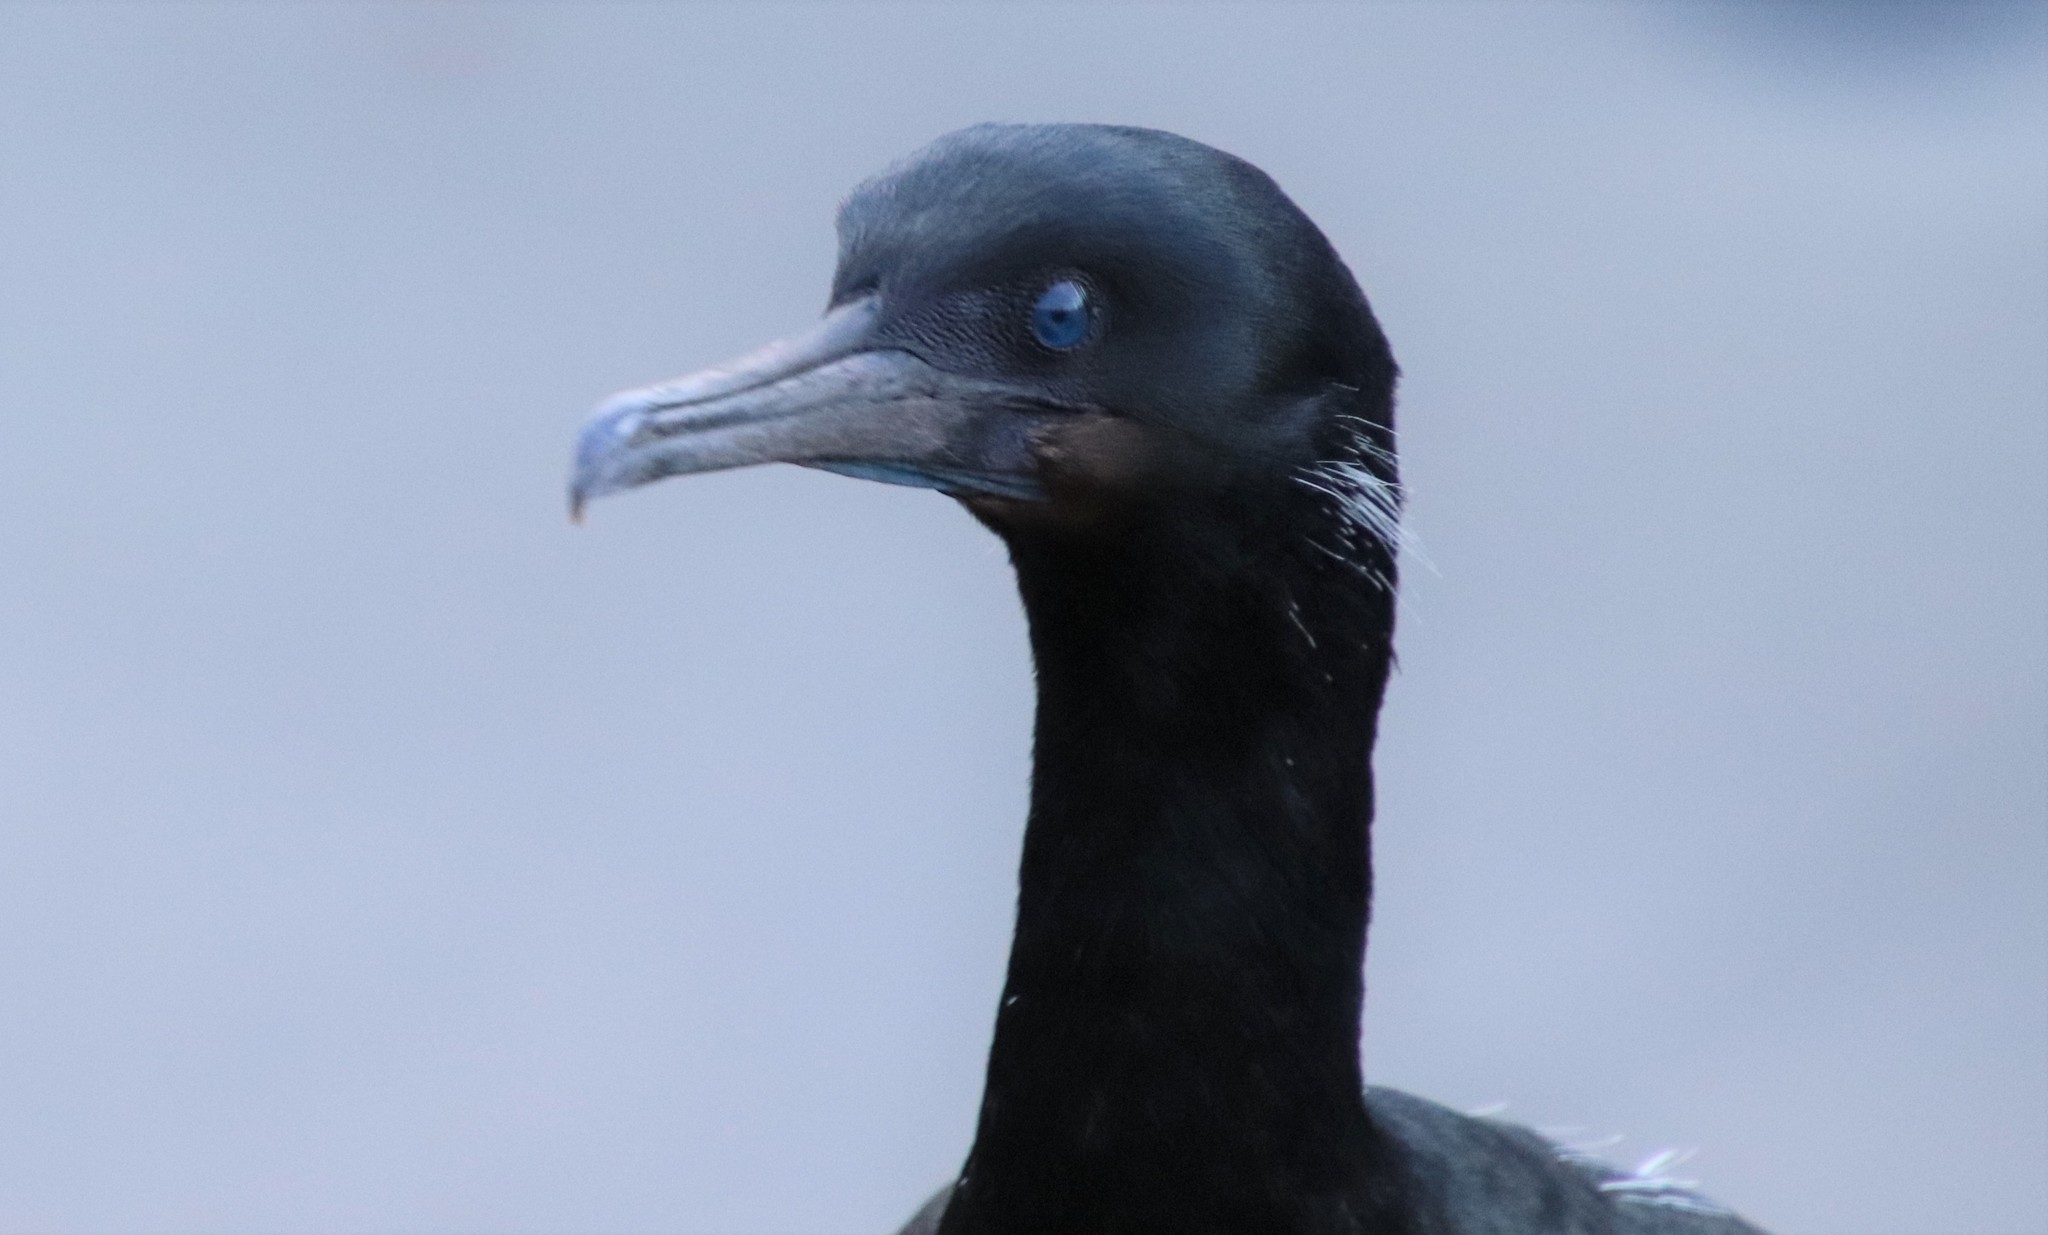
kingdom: Animalia
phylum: Chordata
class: Aves
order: Suliformes
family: Phalacrocoracidae
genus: Urile
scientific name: Urile penicillatus
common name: Brandt's cormorant
